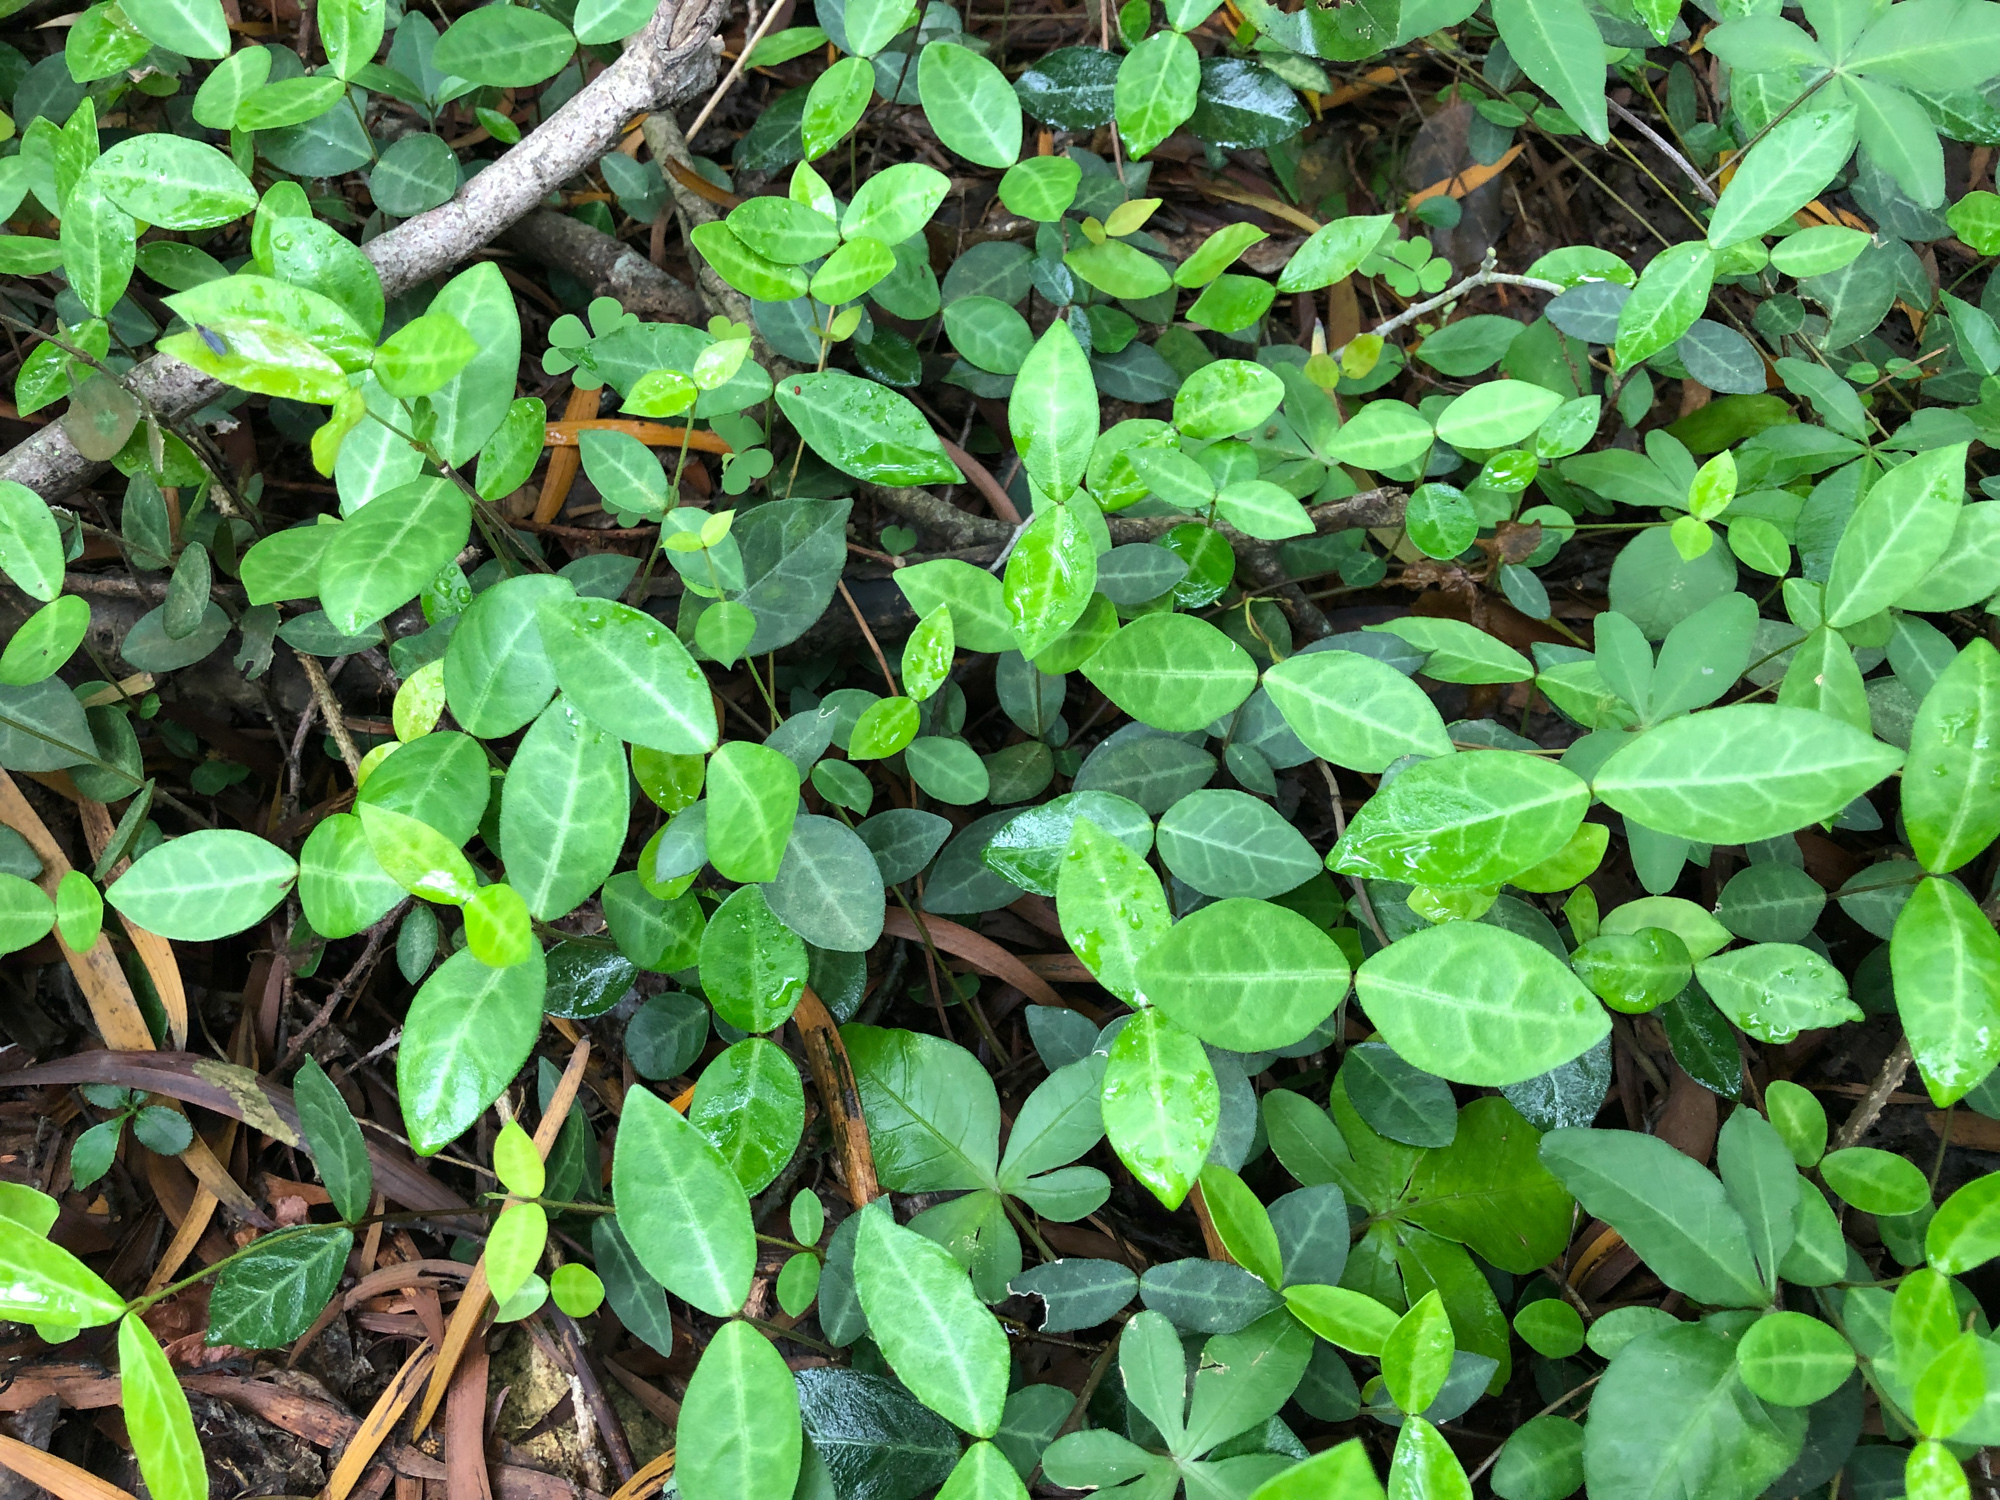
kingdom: Plantae
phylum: Tracheophyta
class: Magnoliopsida
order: Gentianales
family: Apocynaceae
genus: Trachelospermum
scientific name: Trachelospermum jasminoides
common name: Confederate jasmine
